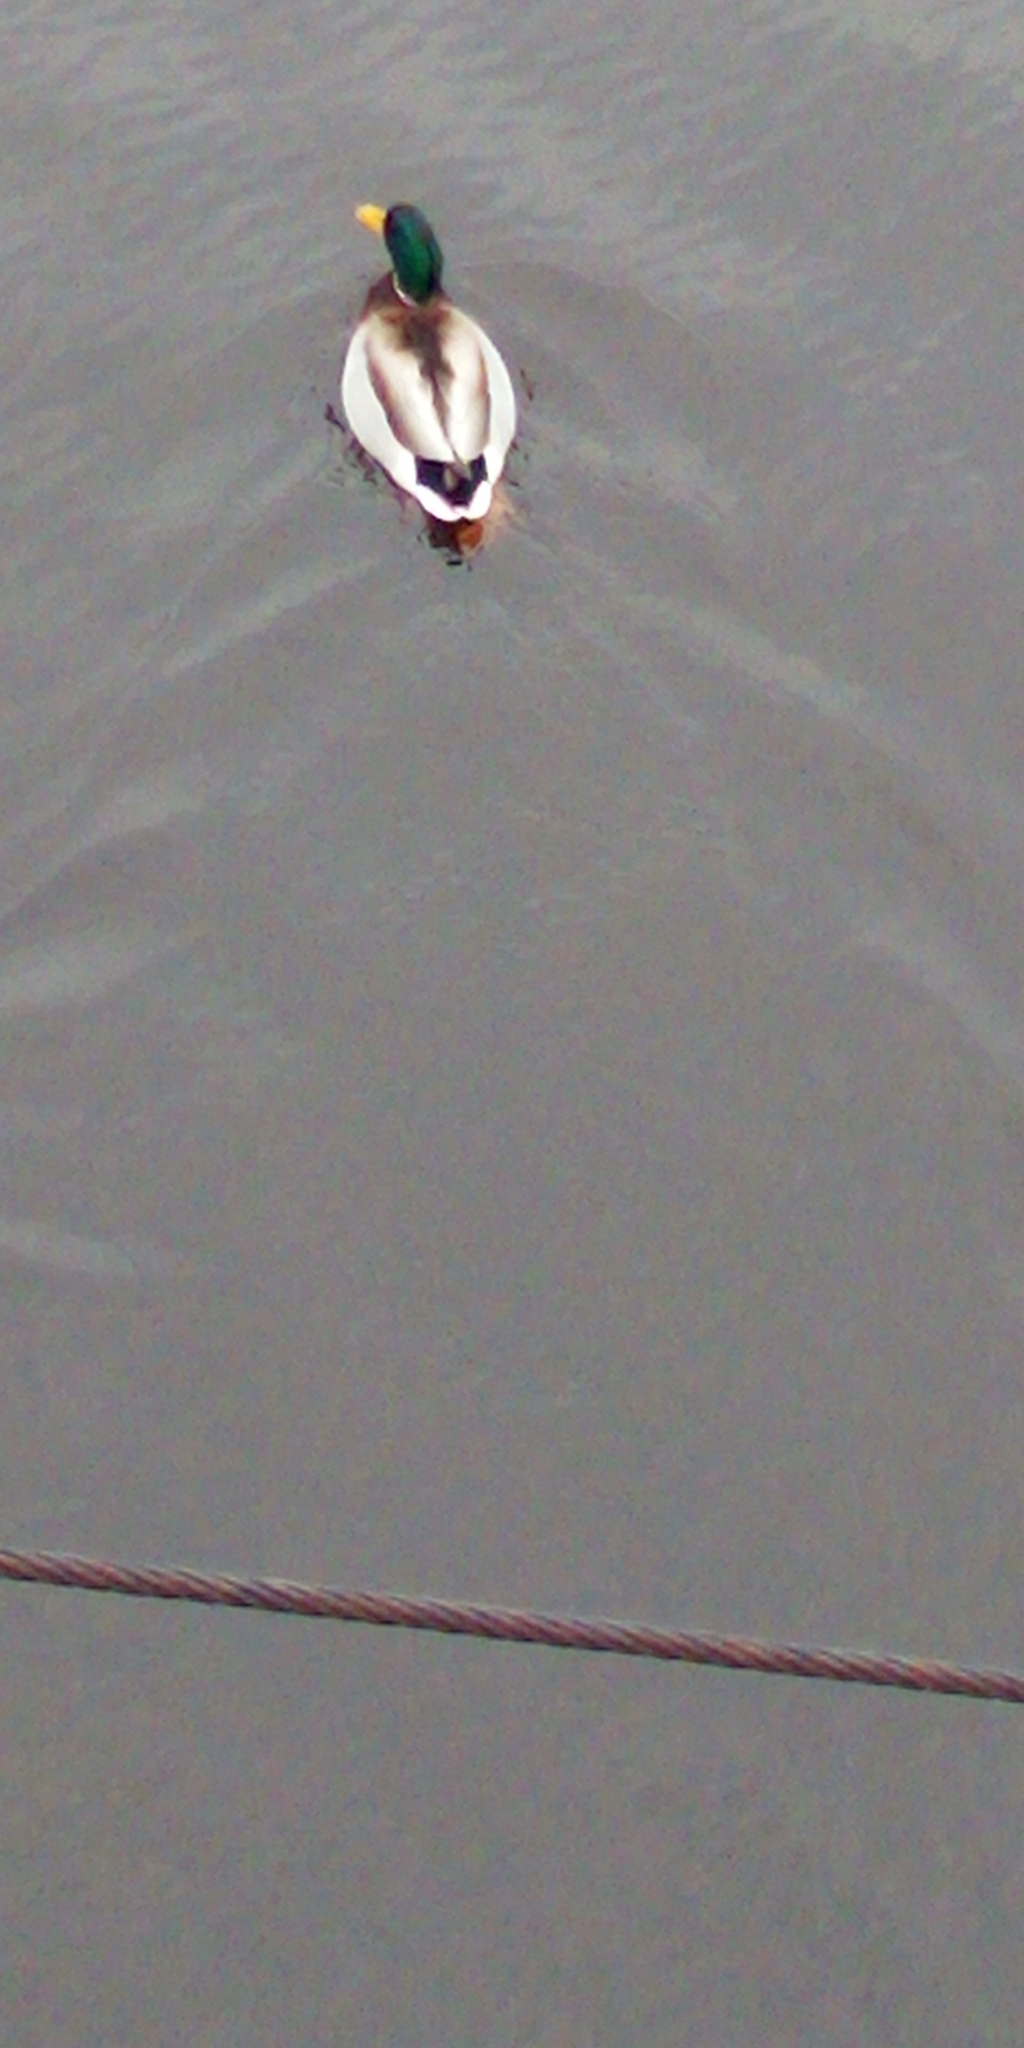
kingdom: Animalia
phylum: Chordata
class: Aves
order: Anseriformes
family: Anatidae
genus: Anas
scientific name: Anas platyrhynchos
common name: Mallard
